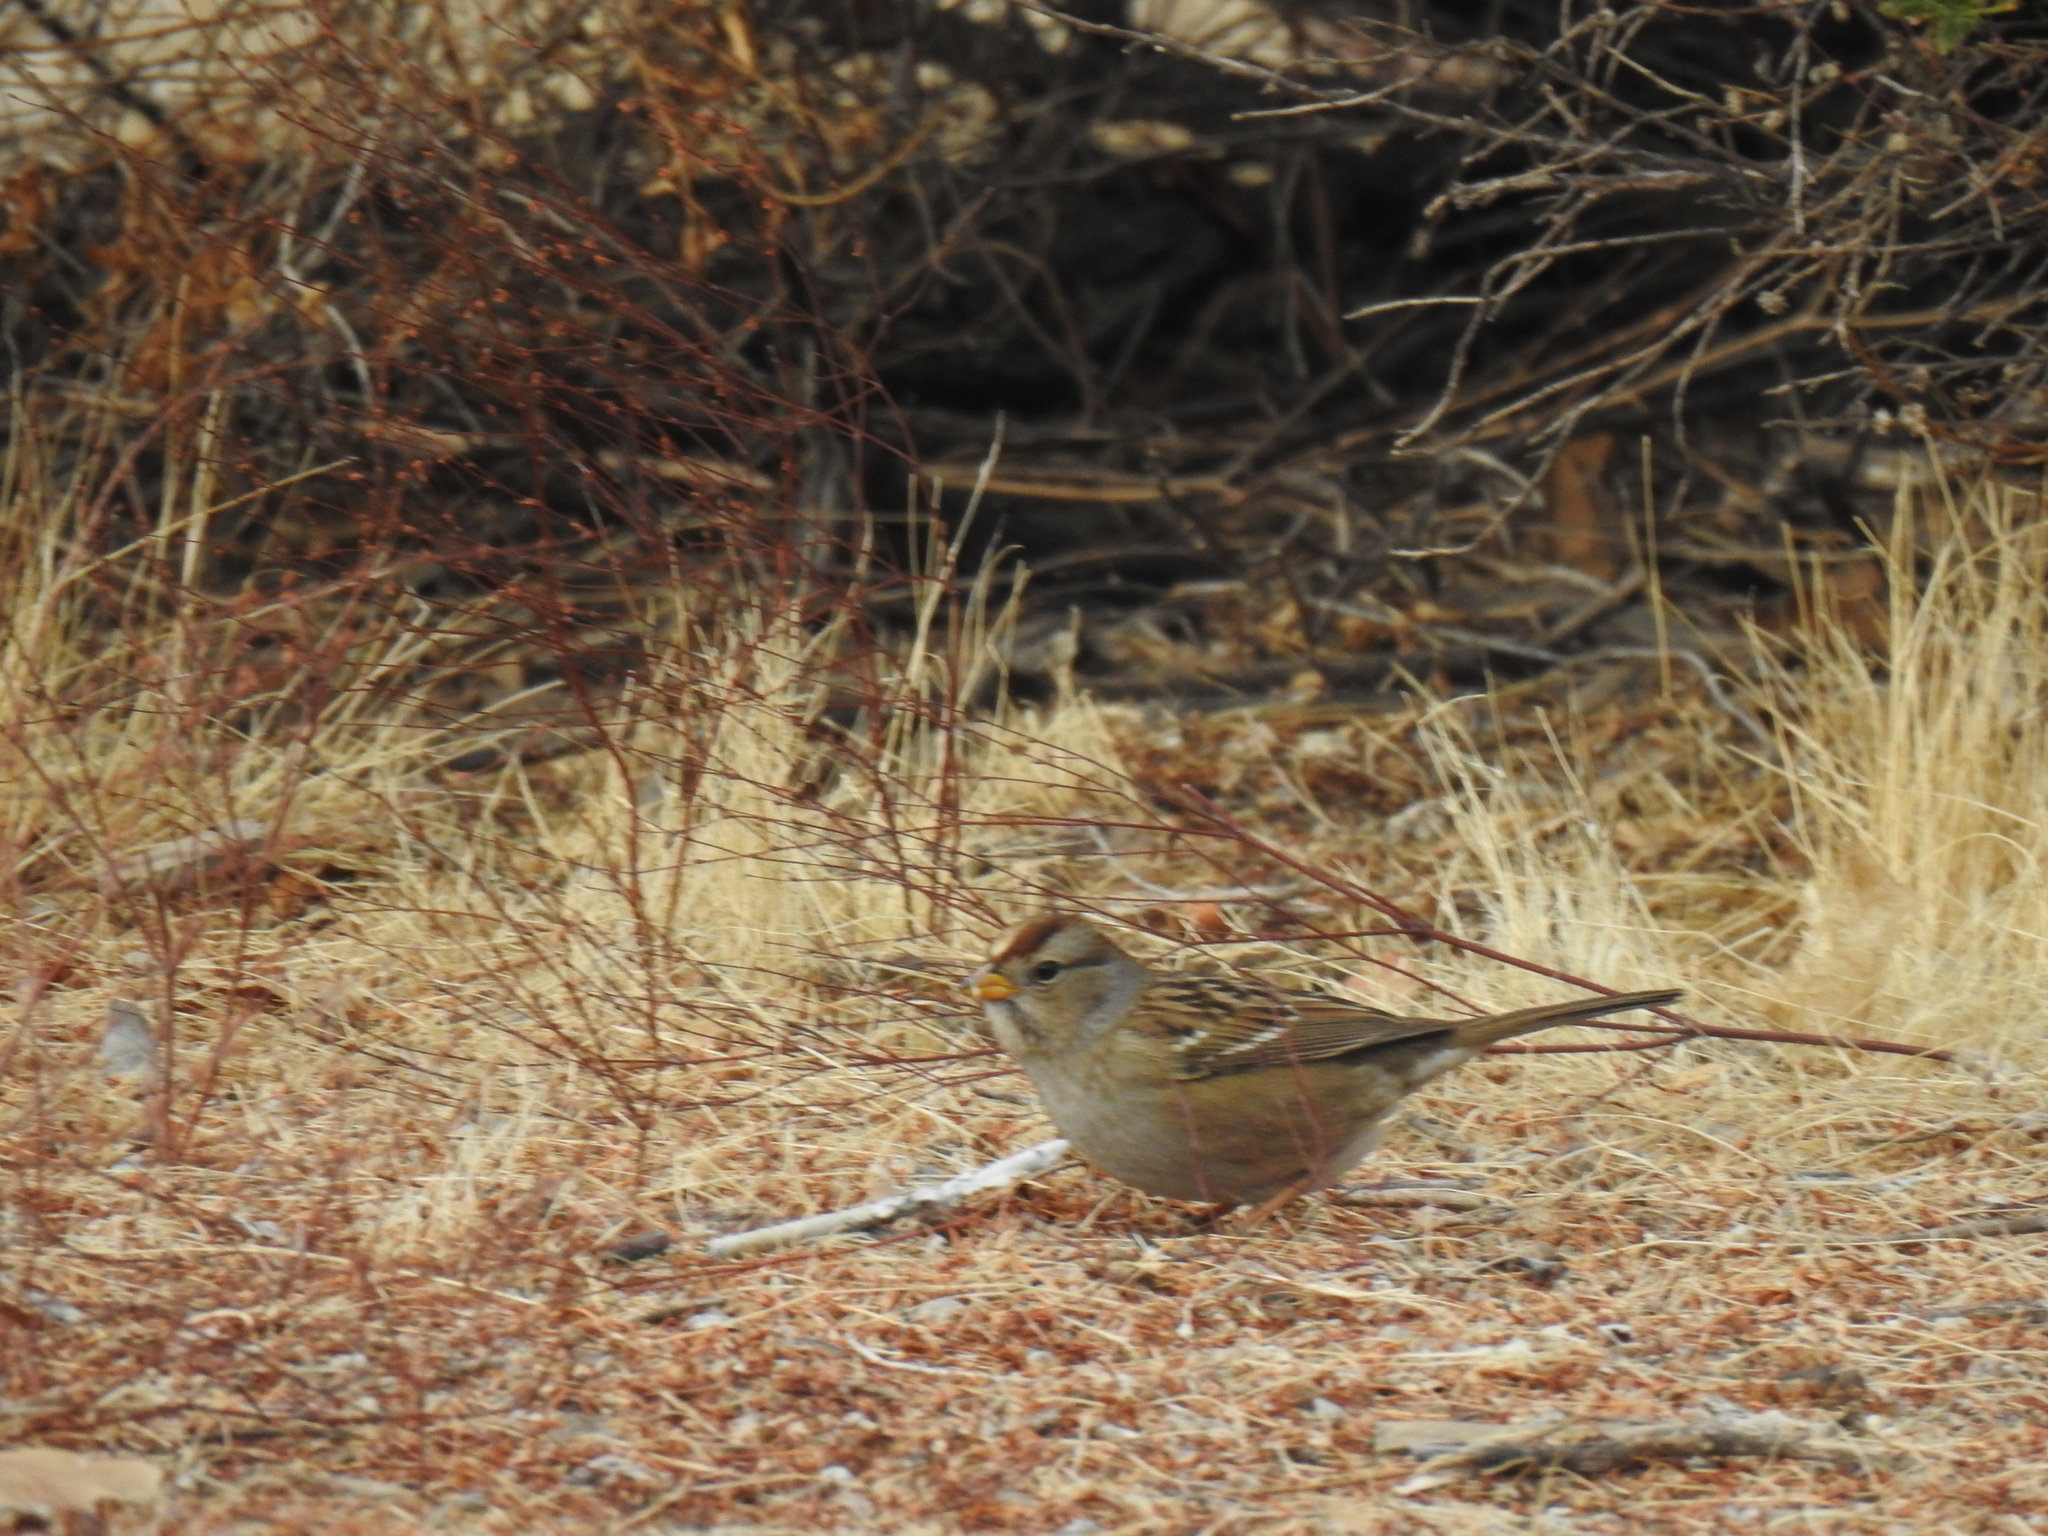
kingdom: Animalia
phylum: Chordata
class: Aves
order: Passeriformes
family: Passerellidae
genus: Zonotrichia
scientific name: Zonotrichia atricapilla
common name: Golden-crowned sparrow
